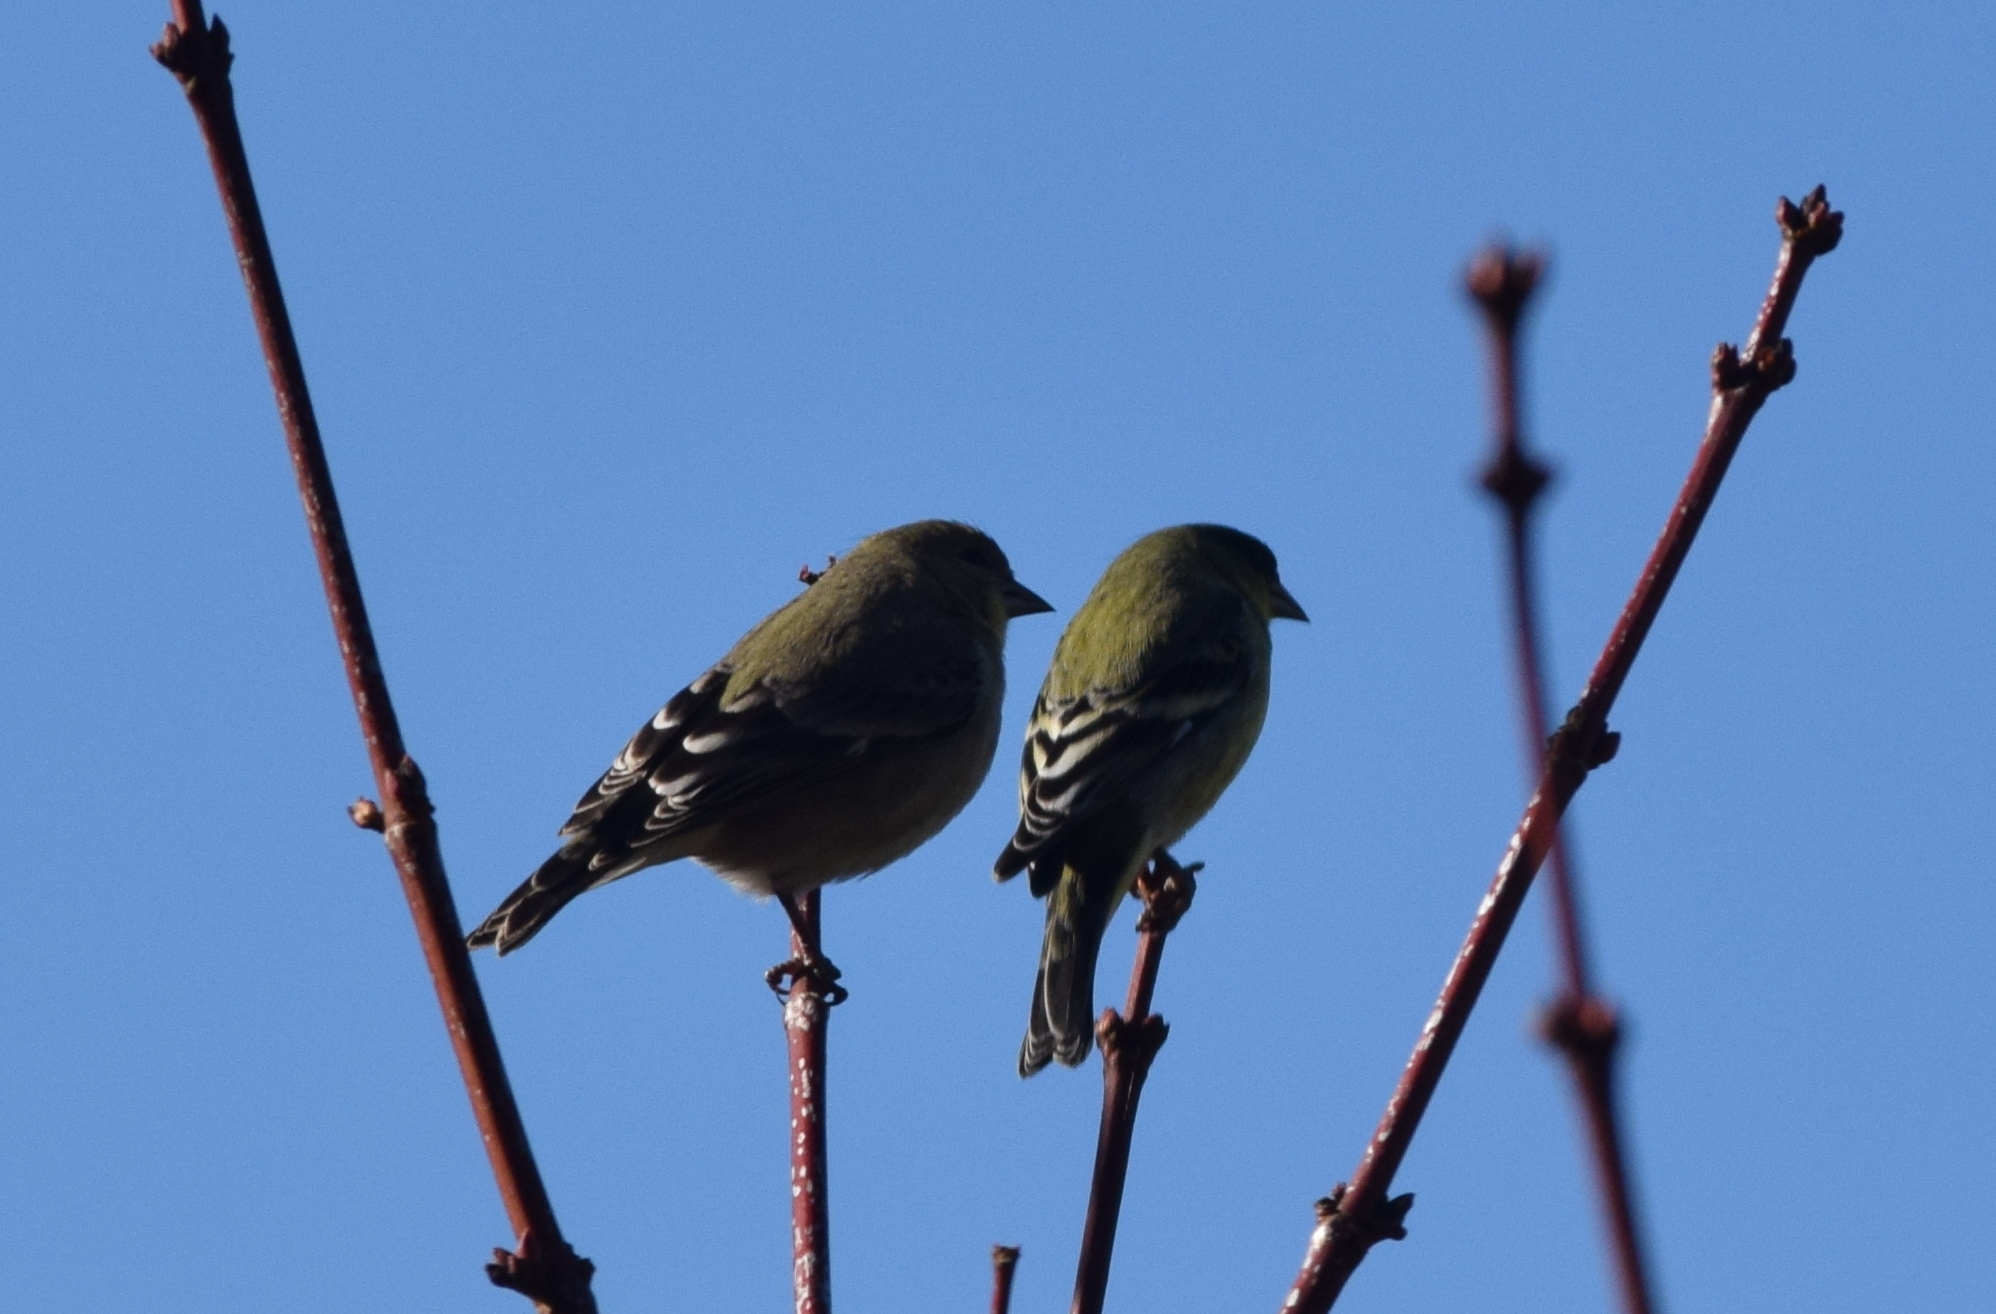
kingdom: Animalia
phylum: Chordata
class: Aves
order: Passeriformes
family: Fringillidae
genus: Spinus
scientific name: Spinus psaltria
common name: Lesser goldfinch
